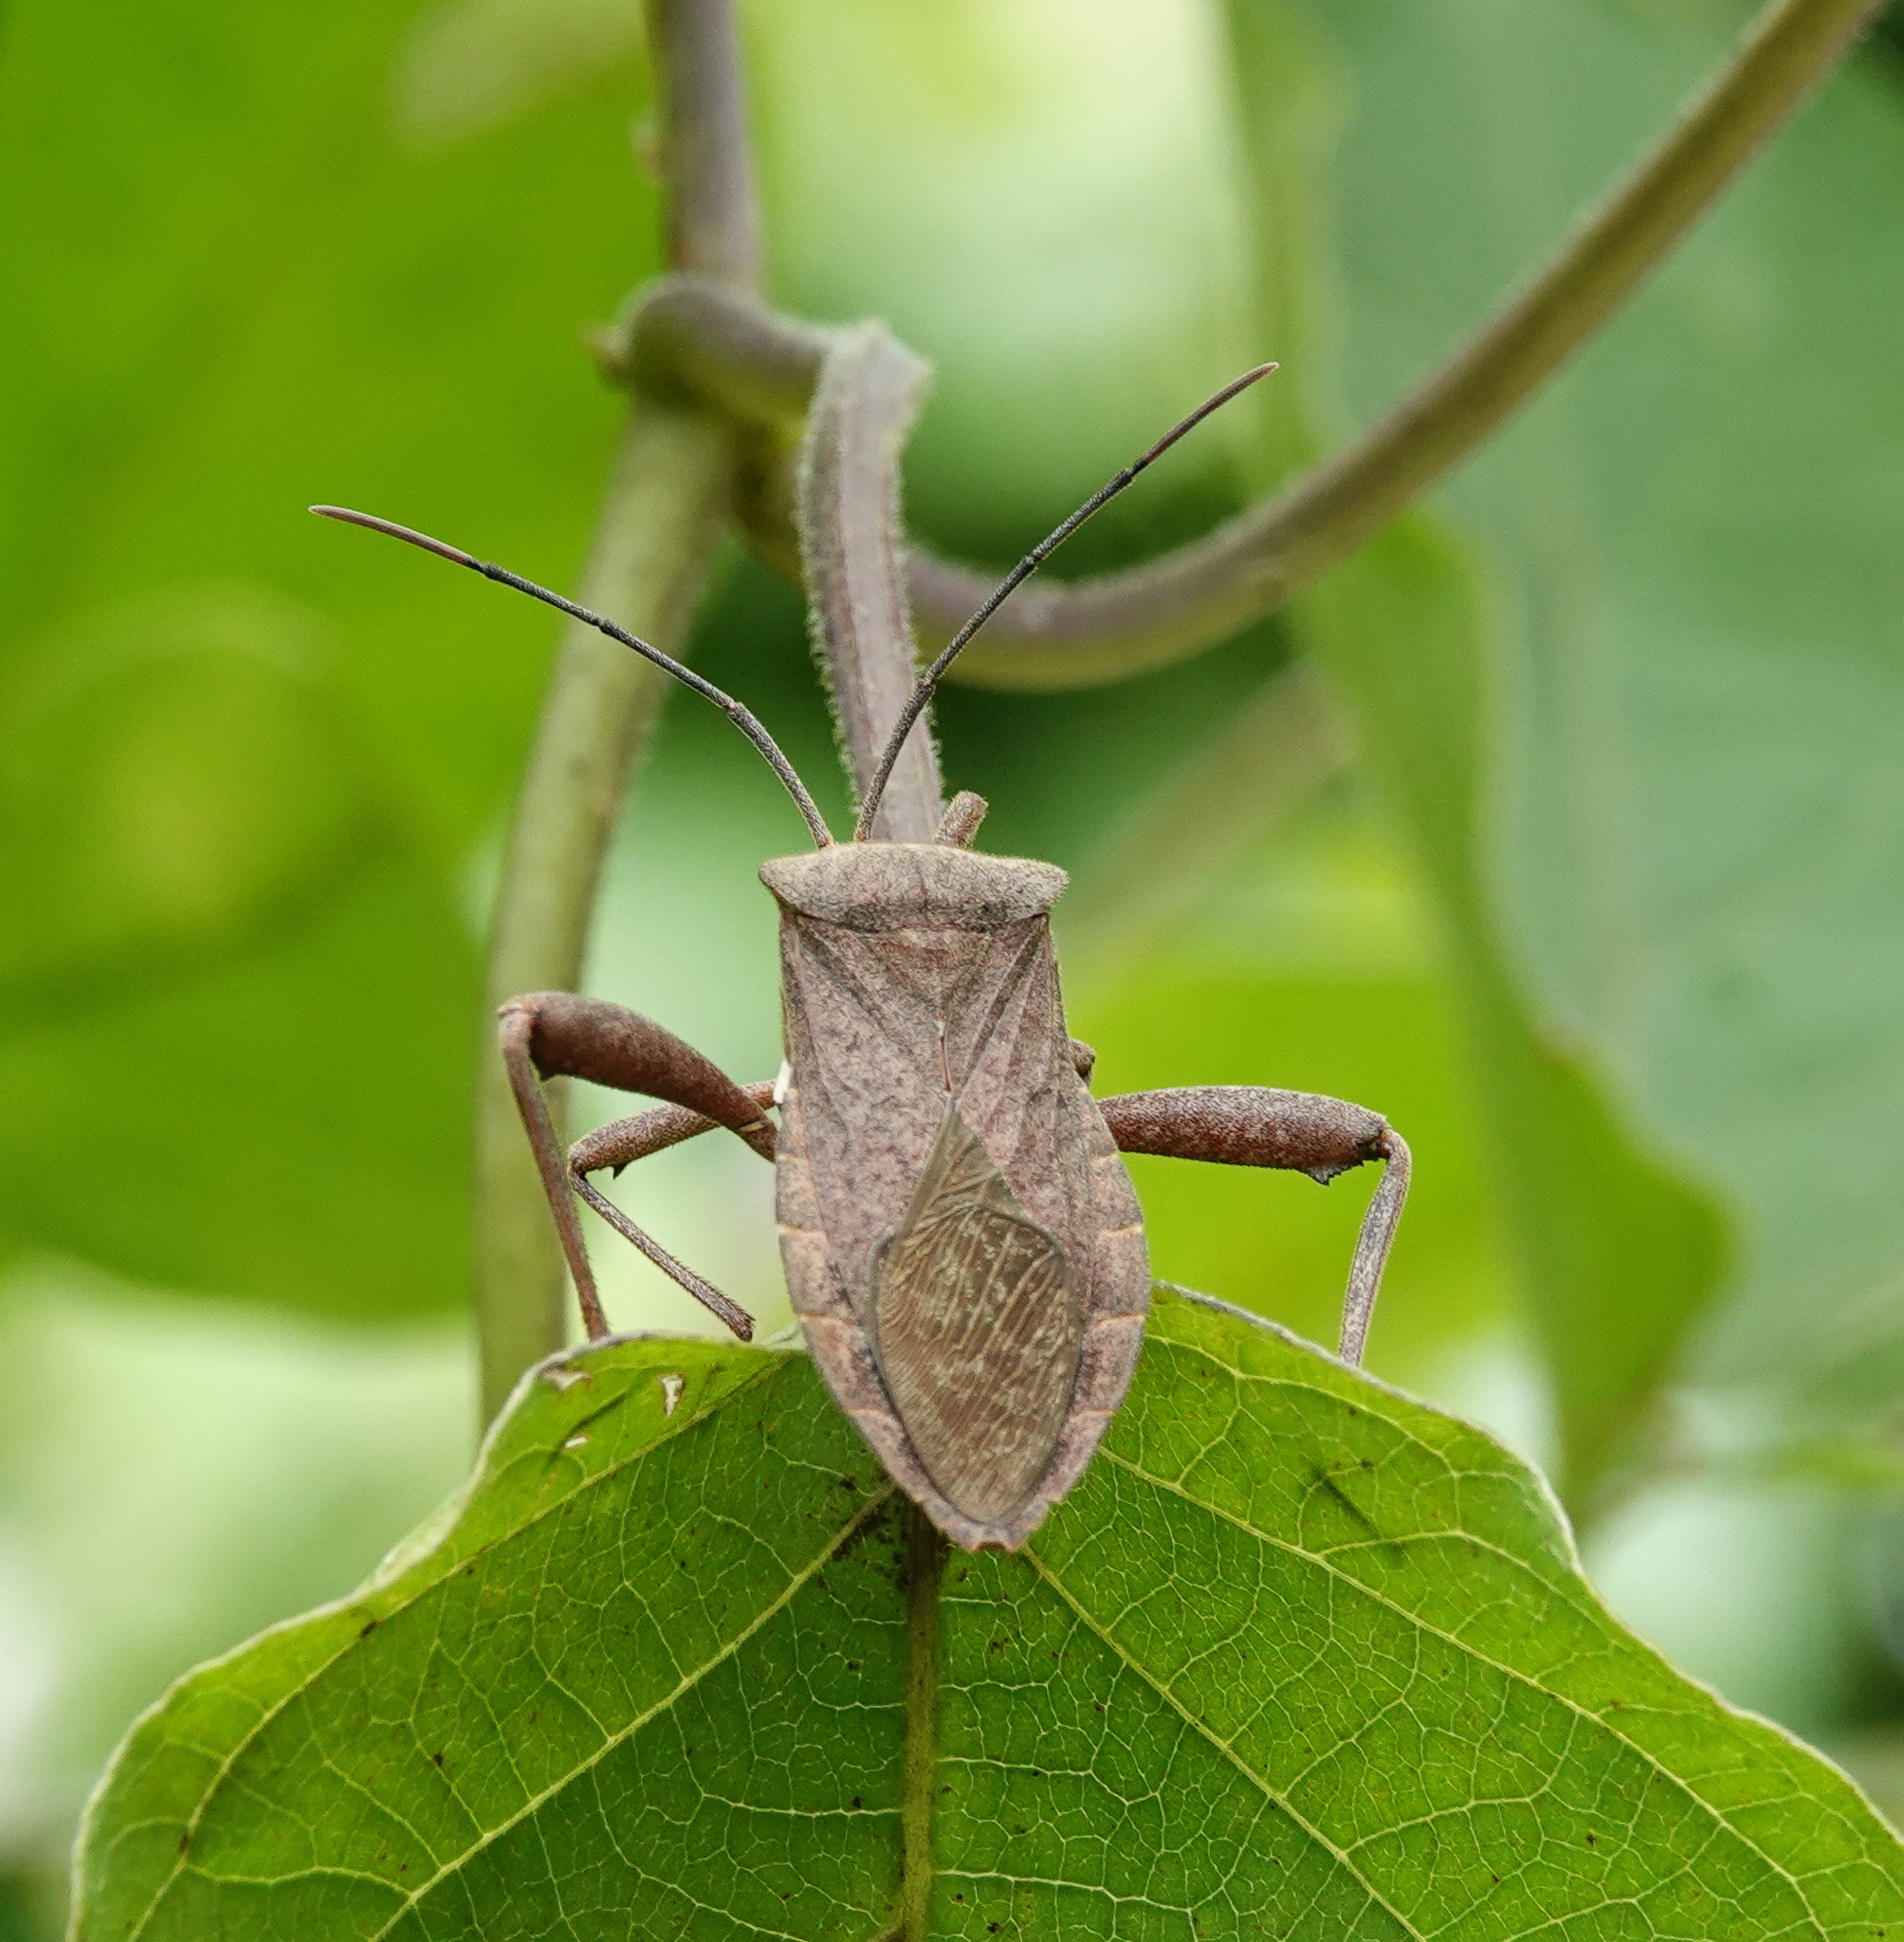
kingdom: Animalia
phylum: Arthropoda
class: Insecta
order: Hemiptera
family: Coreidae
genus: Mictis
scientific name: Mictis tenebrosa
